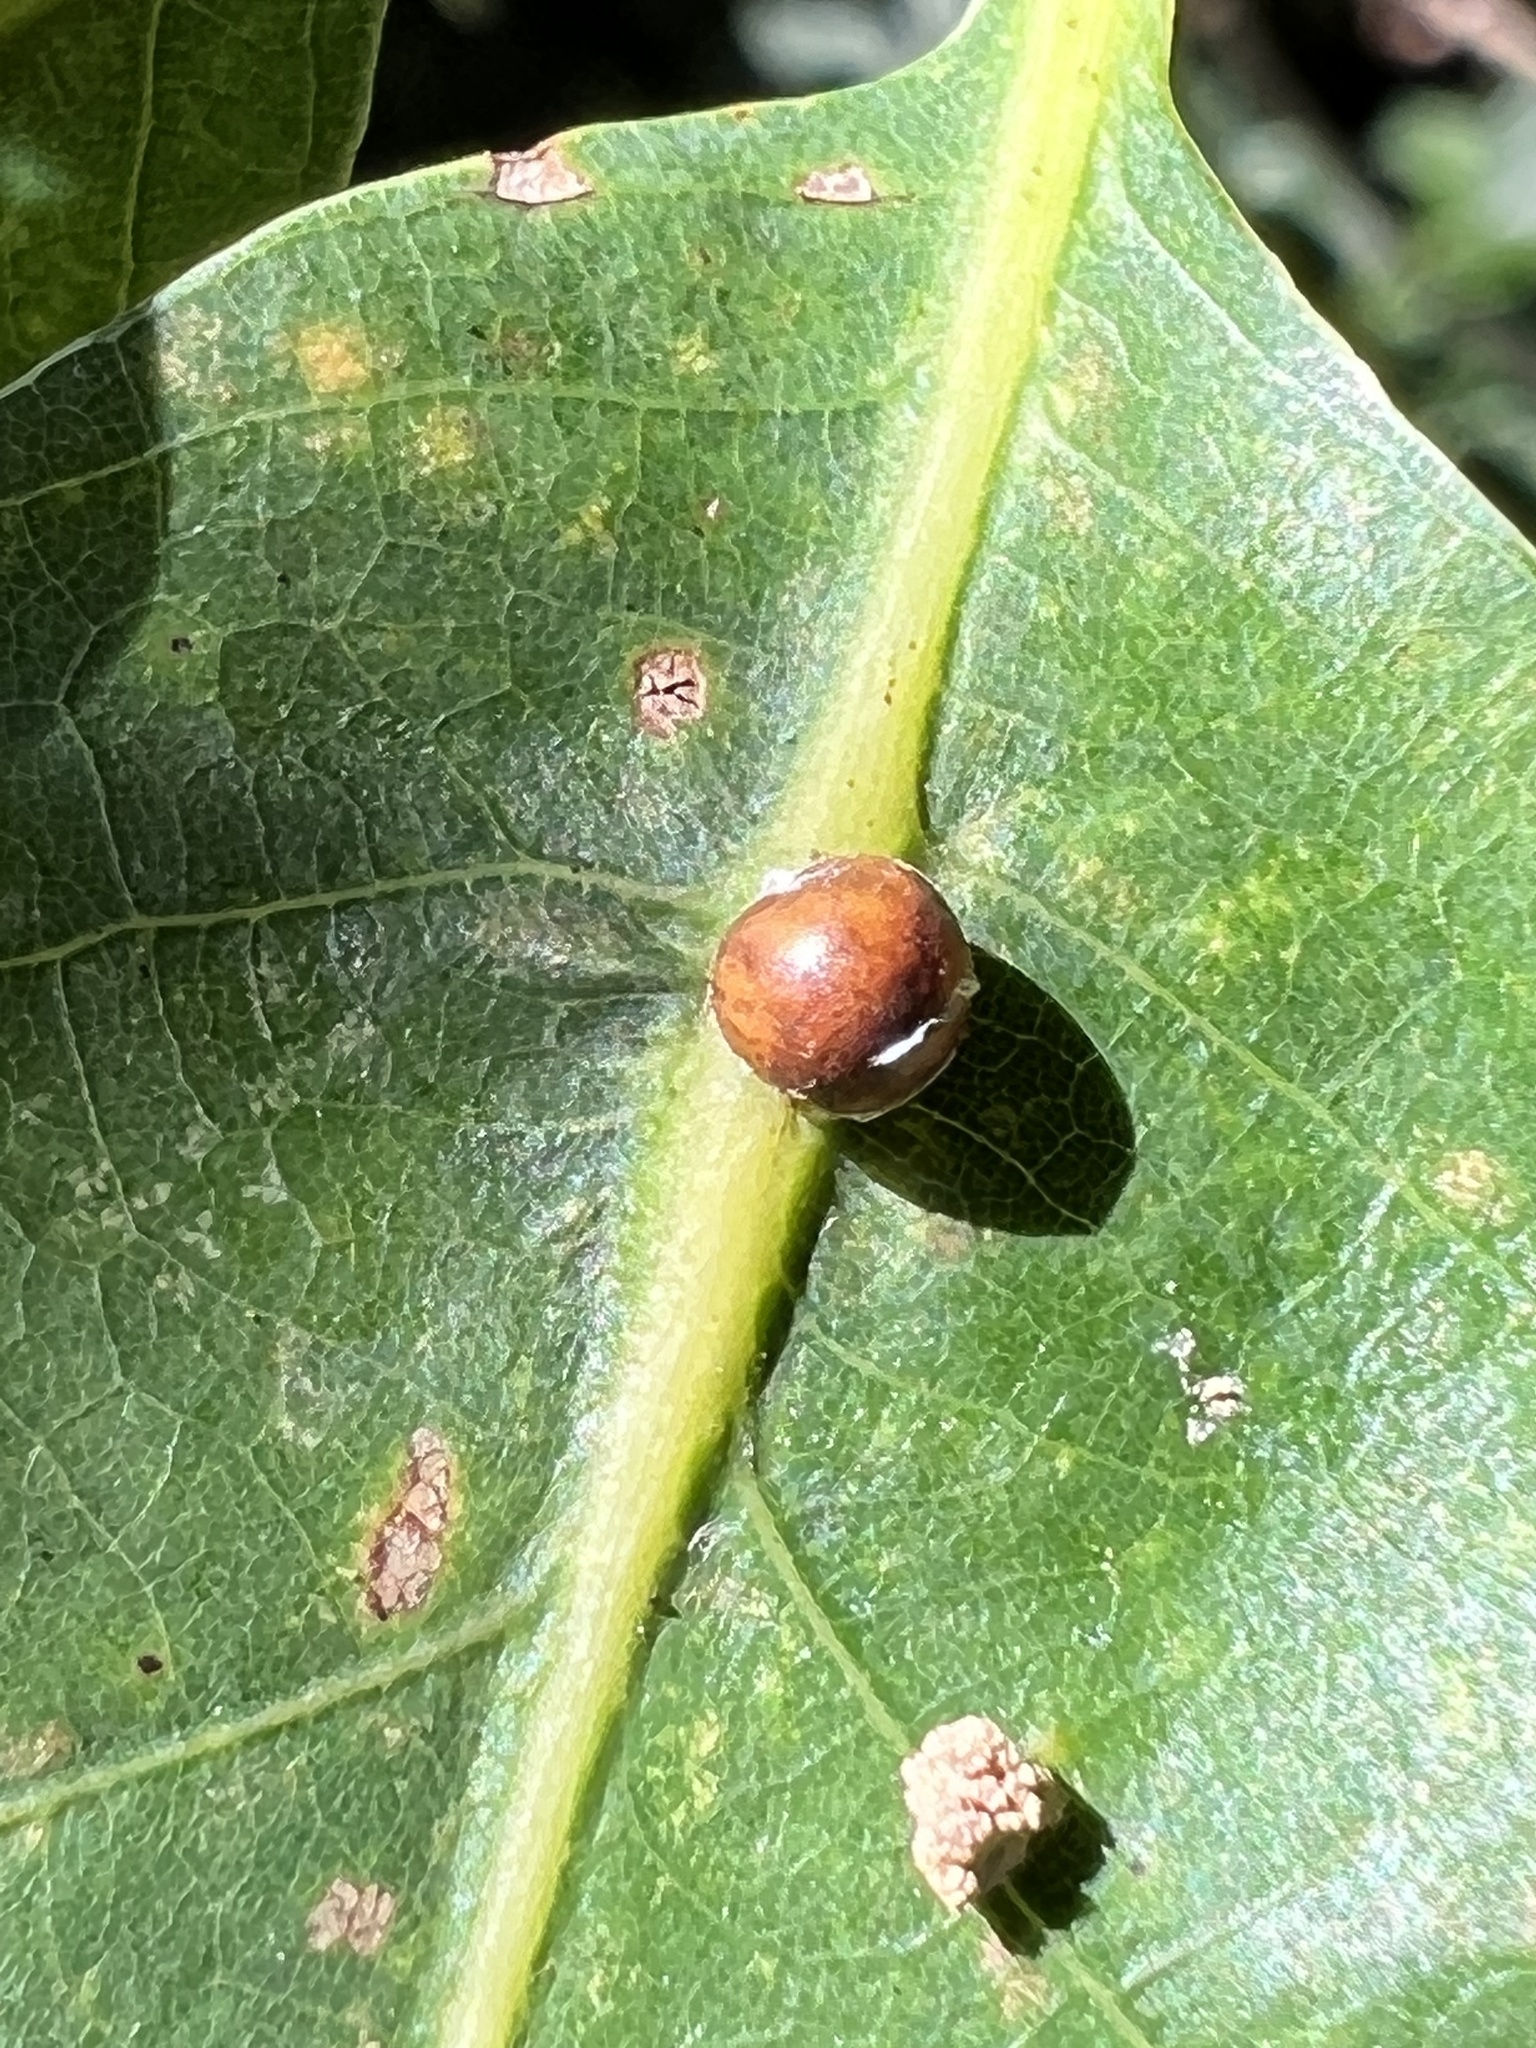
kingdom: Animalia
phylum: Arthropoda
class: Insecta
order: Hemiptera
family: Kermesidae
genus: Nanokermes
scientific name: Nanokermes folium
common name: Leaf kermes
